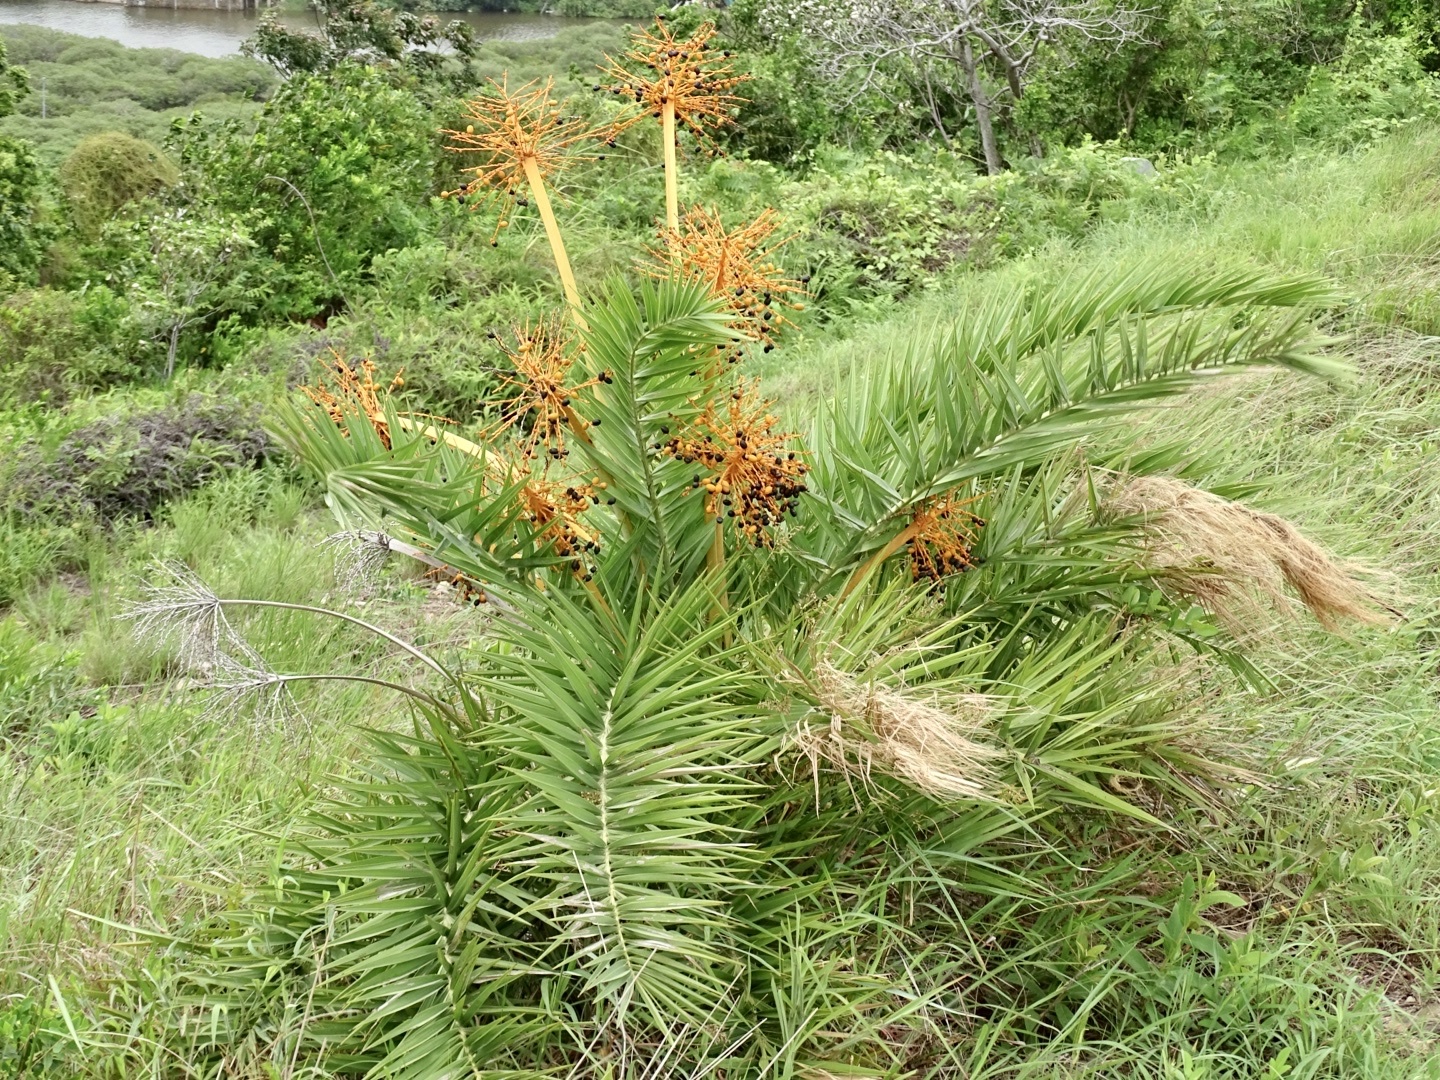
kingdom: Plantae
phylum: Tracheophyta
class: Liliopsida
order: Arecales
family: Arecaceae
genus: Phoenix
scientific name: Phoenix loureiroi
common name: Loureiro's palm
